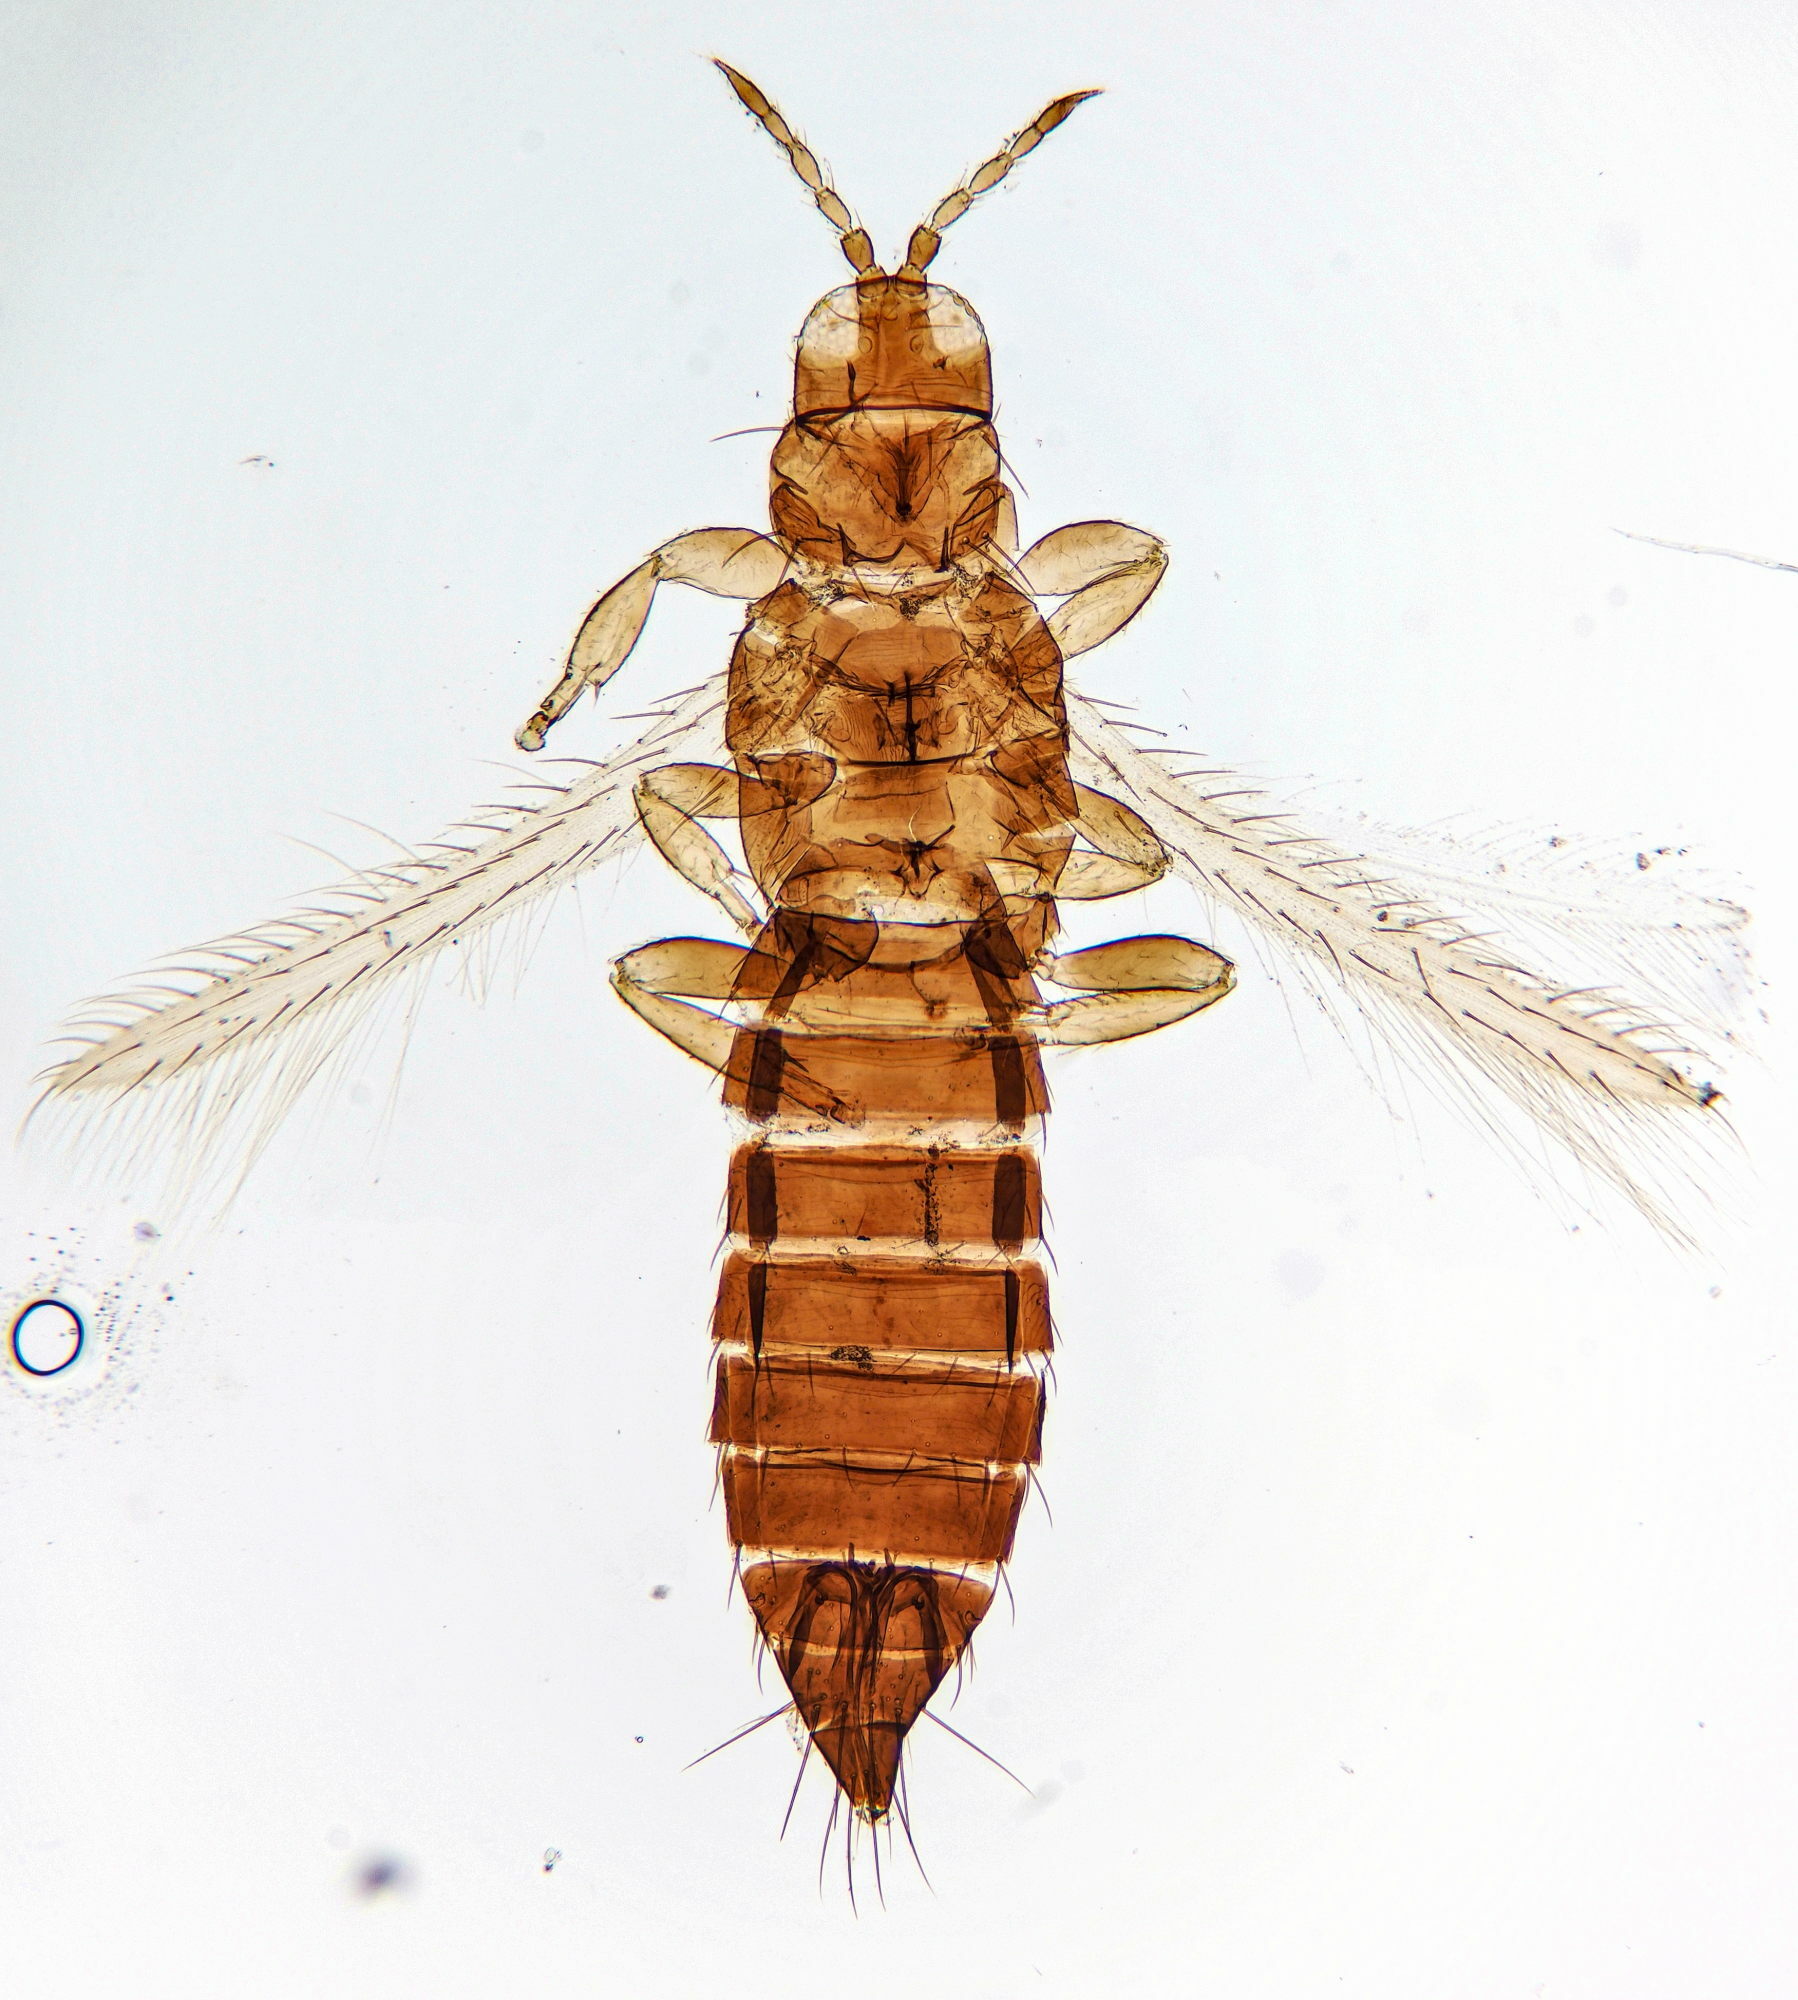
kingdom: Animalia
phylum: Arthropoda
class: Insecta
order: Thysanoptera
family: Thripidae
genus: Frankliniella
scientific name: Frankliniella intonsa
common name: Thrips
